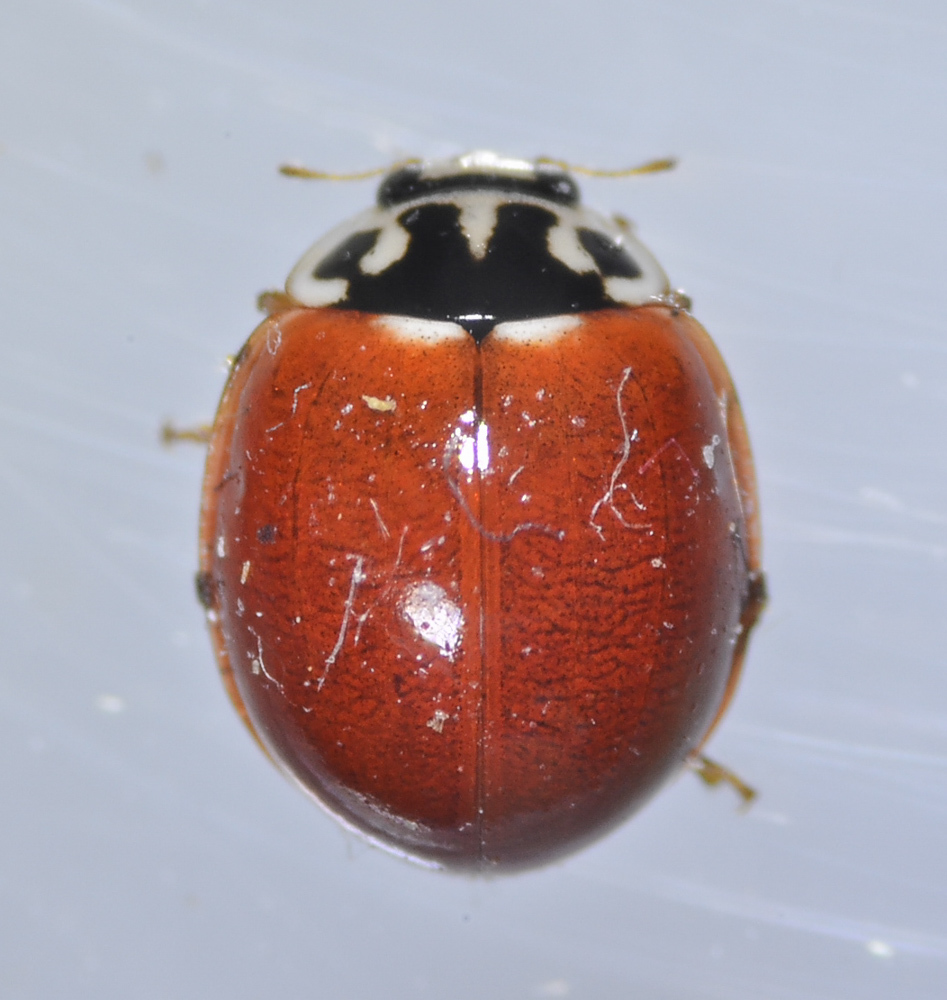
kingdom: Animalia
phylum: Arthropoda
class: Insecta
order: Coleoptera
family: Coccinellidae
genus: Cycloneda
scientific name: Cycloneda polita
